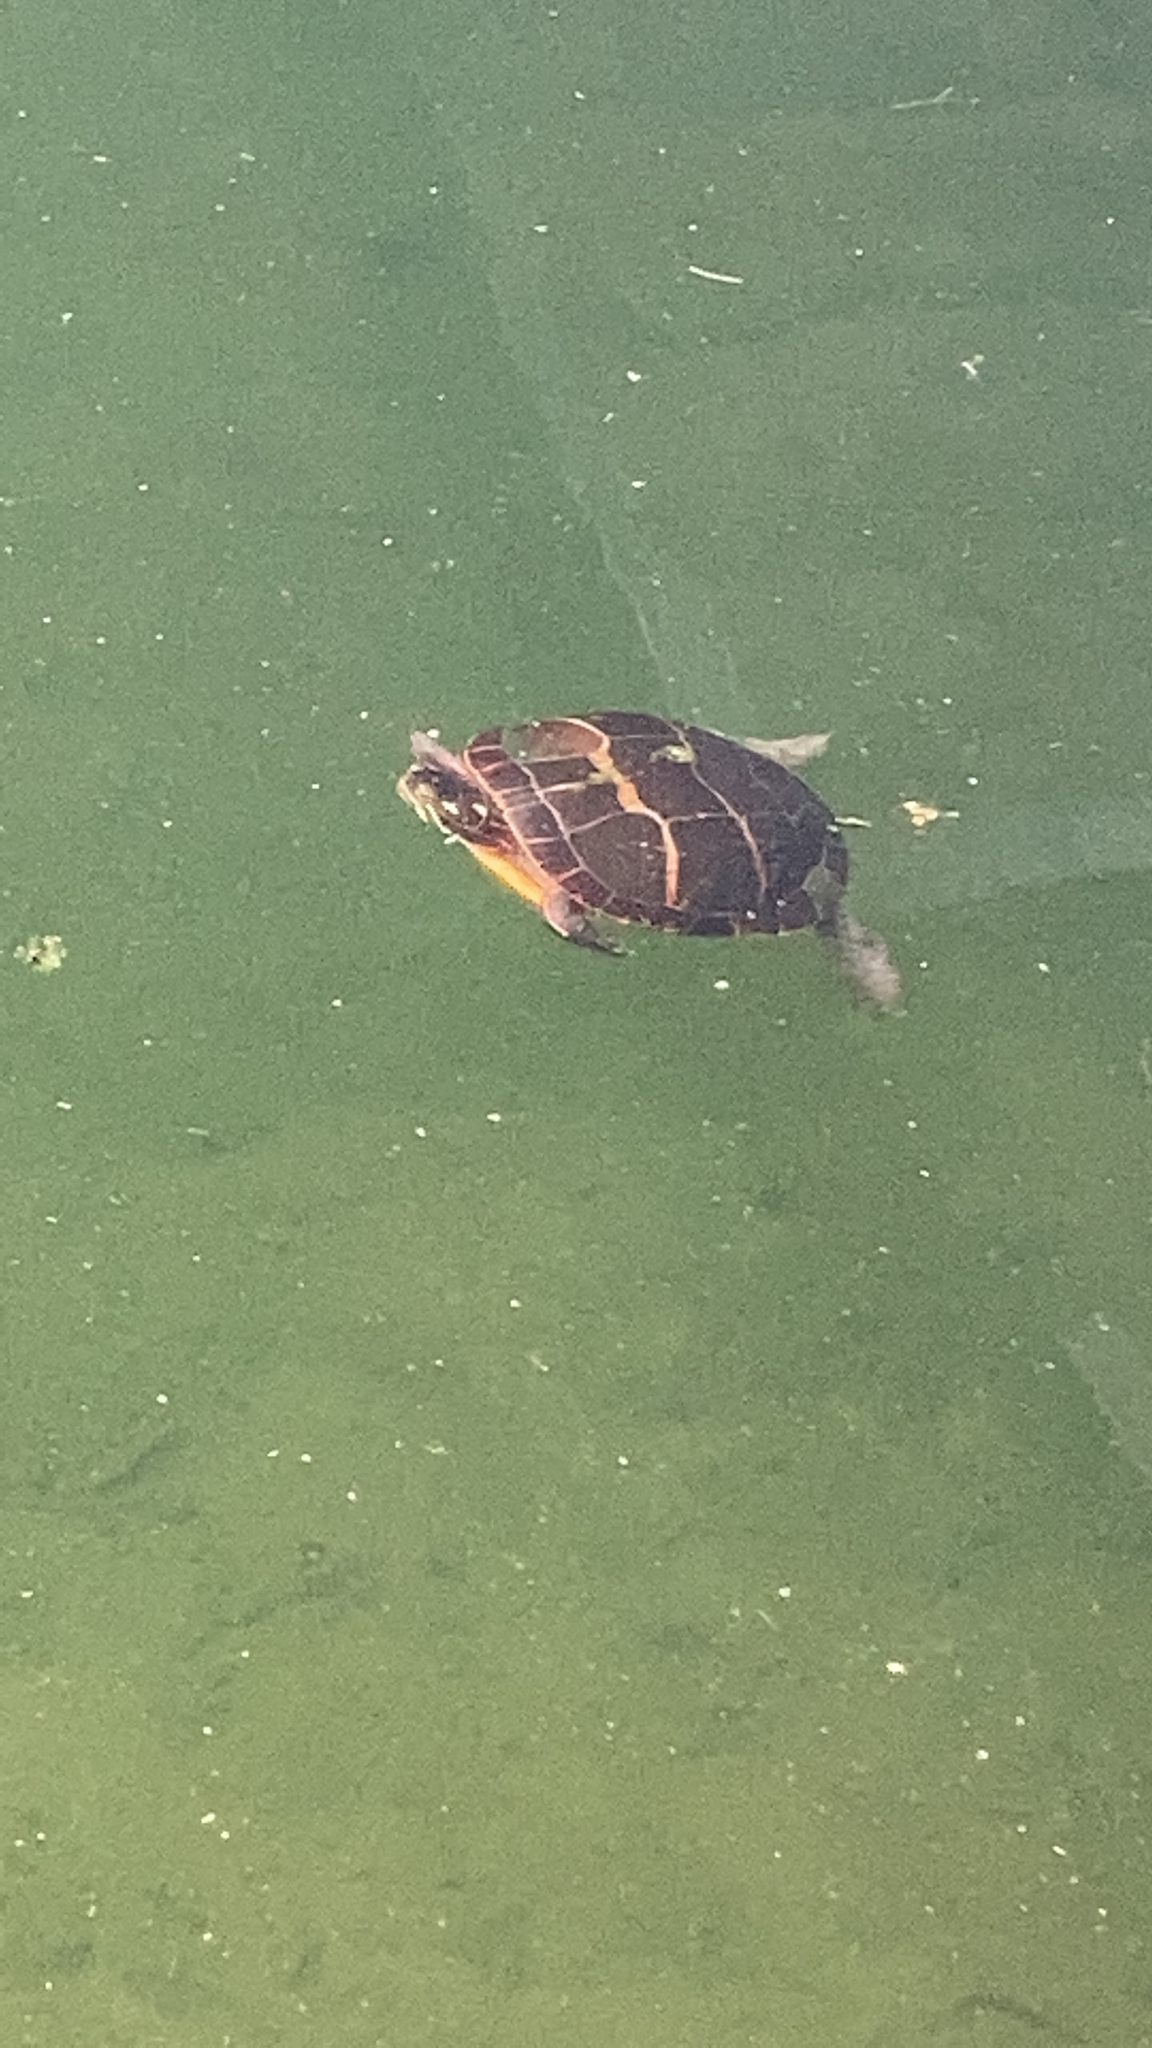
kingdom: Animalia
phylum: Chordata
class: Testudines
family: Emydidae
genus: Chrysemys
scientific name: Chrysemys picta
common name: Painted turtle
